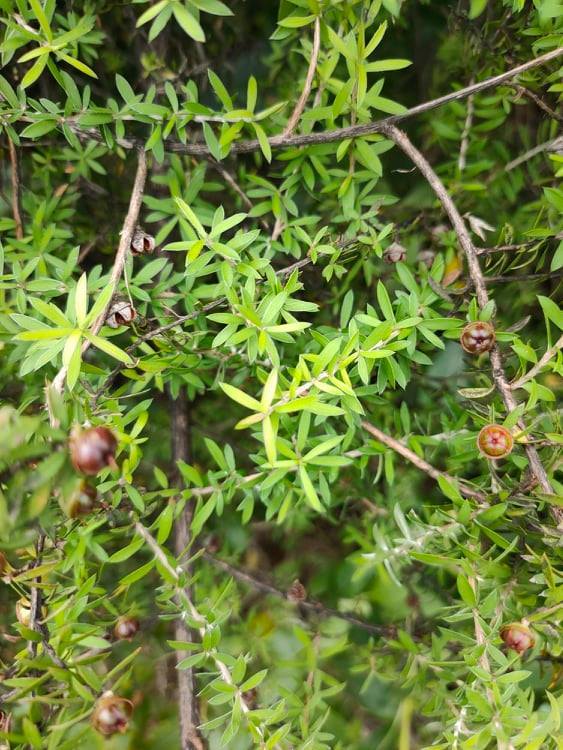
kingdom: Plantae
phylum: Tracheophyta
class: Magnoliopsida
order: Myrtales
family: Myrtaceae
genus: Leptospermum
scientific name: Leptospermum scoparium
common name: Broom tea-tree
